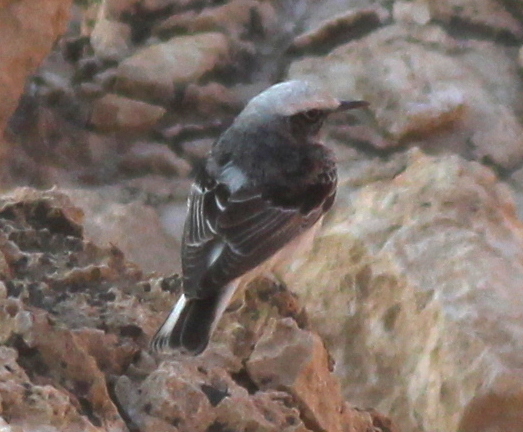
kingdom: Animalia
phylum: Chordata
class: Aves
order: Passeriformes
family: Muscicapidae
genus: Oenanthe
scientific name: Oenanthe pleschanka
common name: Pied wheatear
